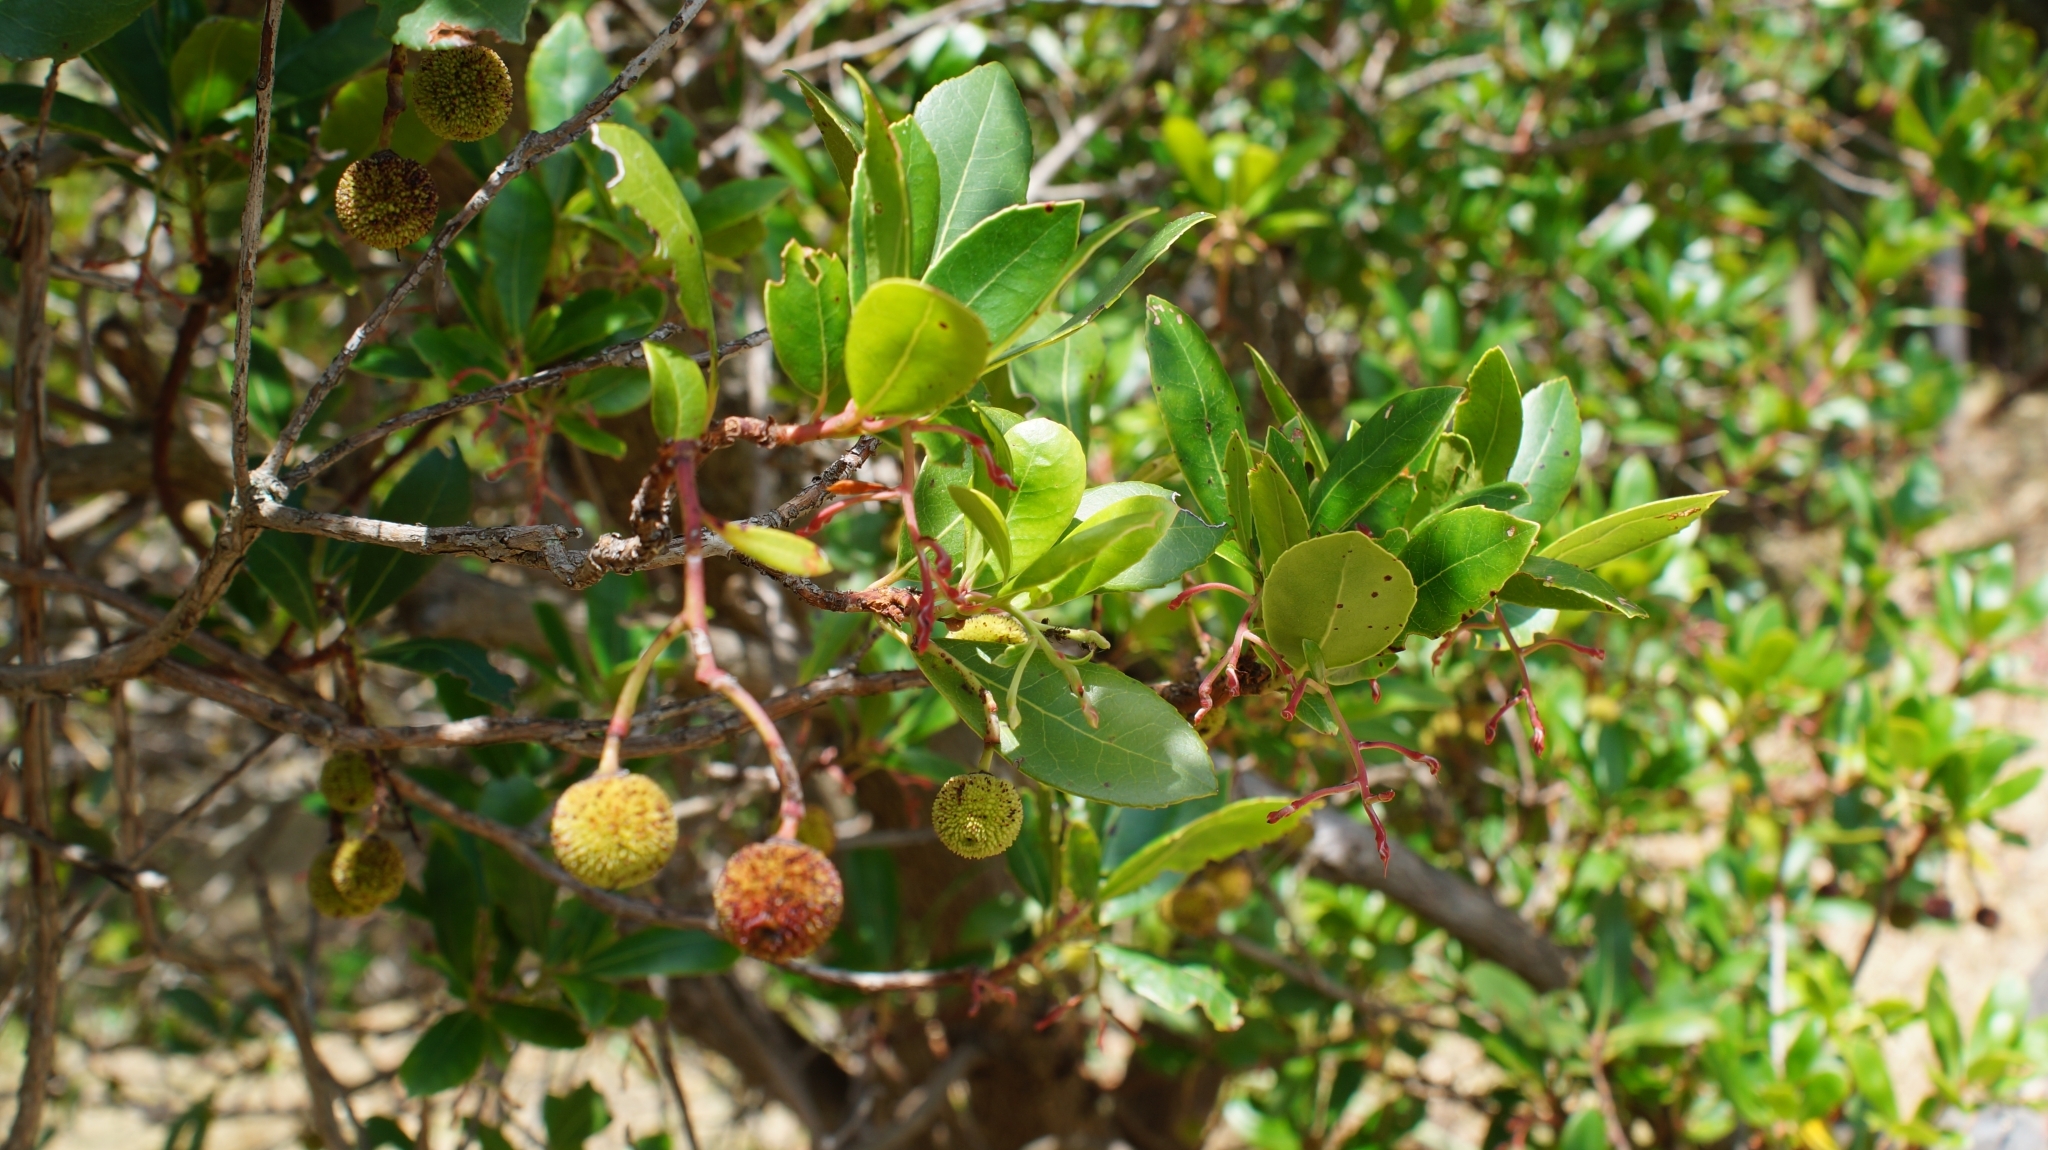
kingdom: Plantae
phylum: Tracheophyta
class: Magnoliopsida
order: Ericales
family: Ericaceae
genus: Arbutus
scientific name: Arbutus unedo
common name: Strawberry-tree
